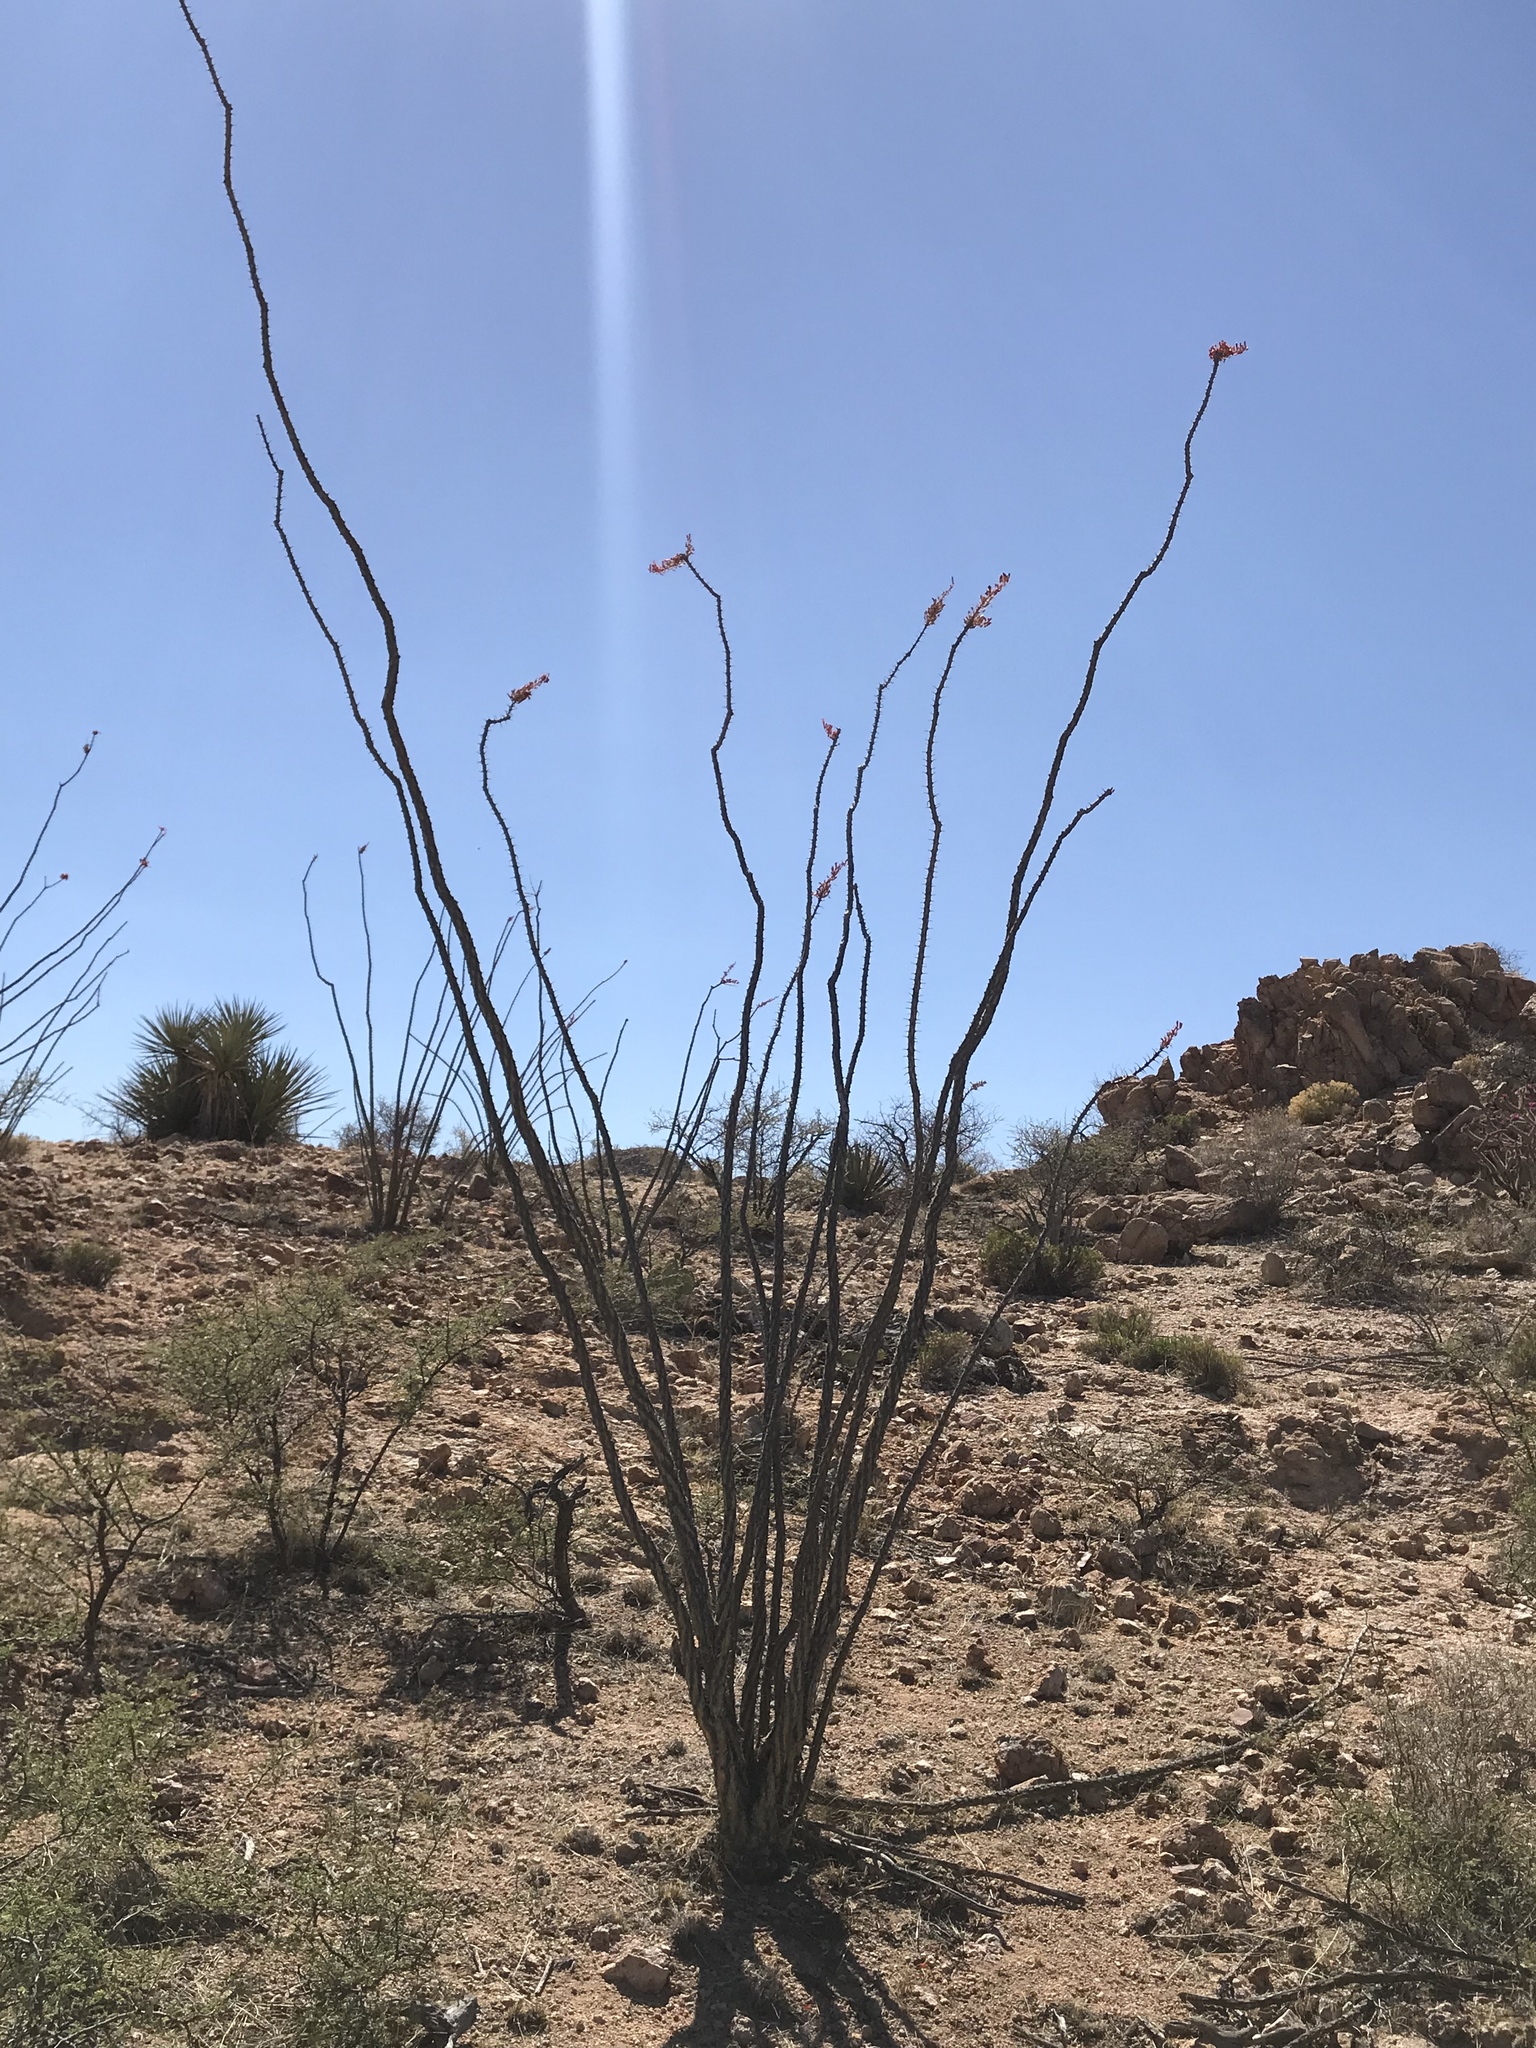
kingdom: Plantae
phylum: Tracheophyta
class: Magnoliopsida
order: Ericales
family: Fouquieriaceae
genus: Fouquieria
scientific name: Fouquieria splendens
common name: Vine-cactus
